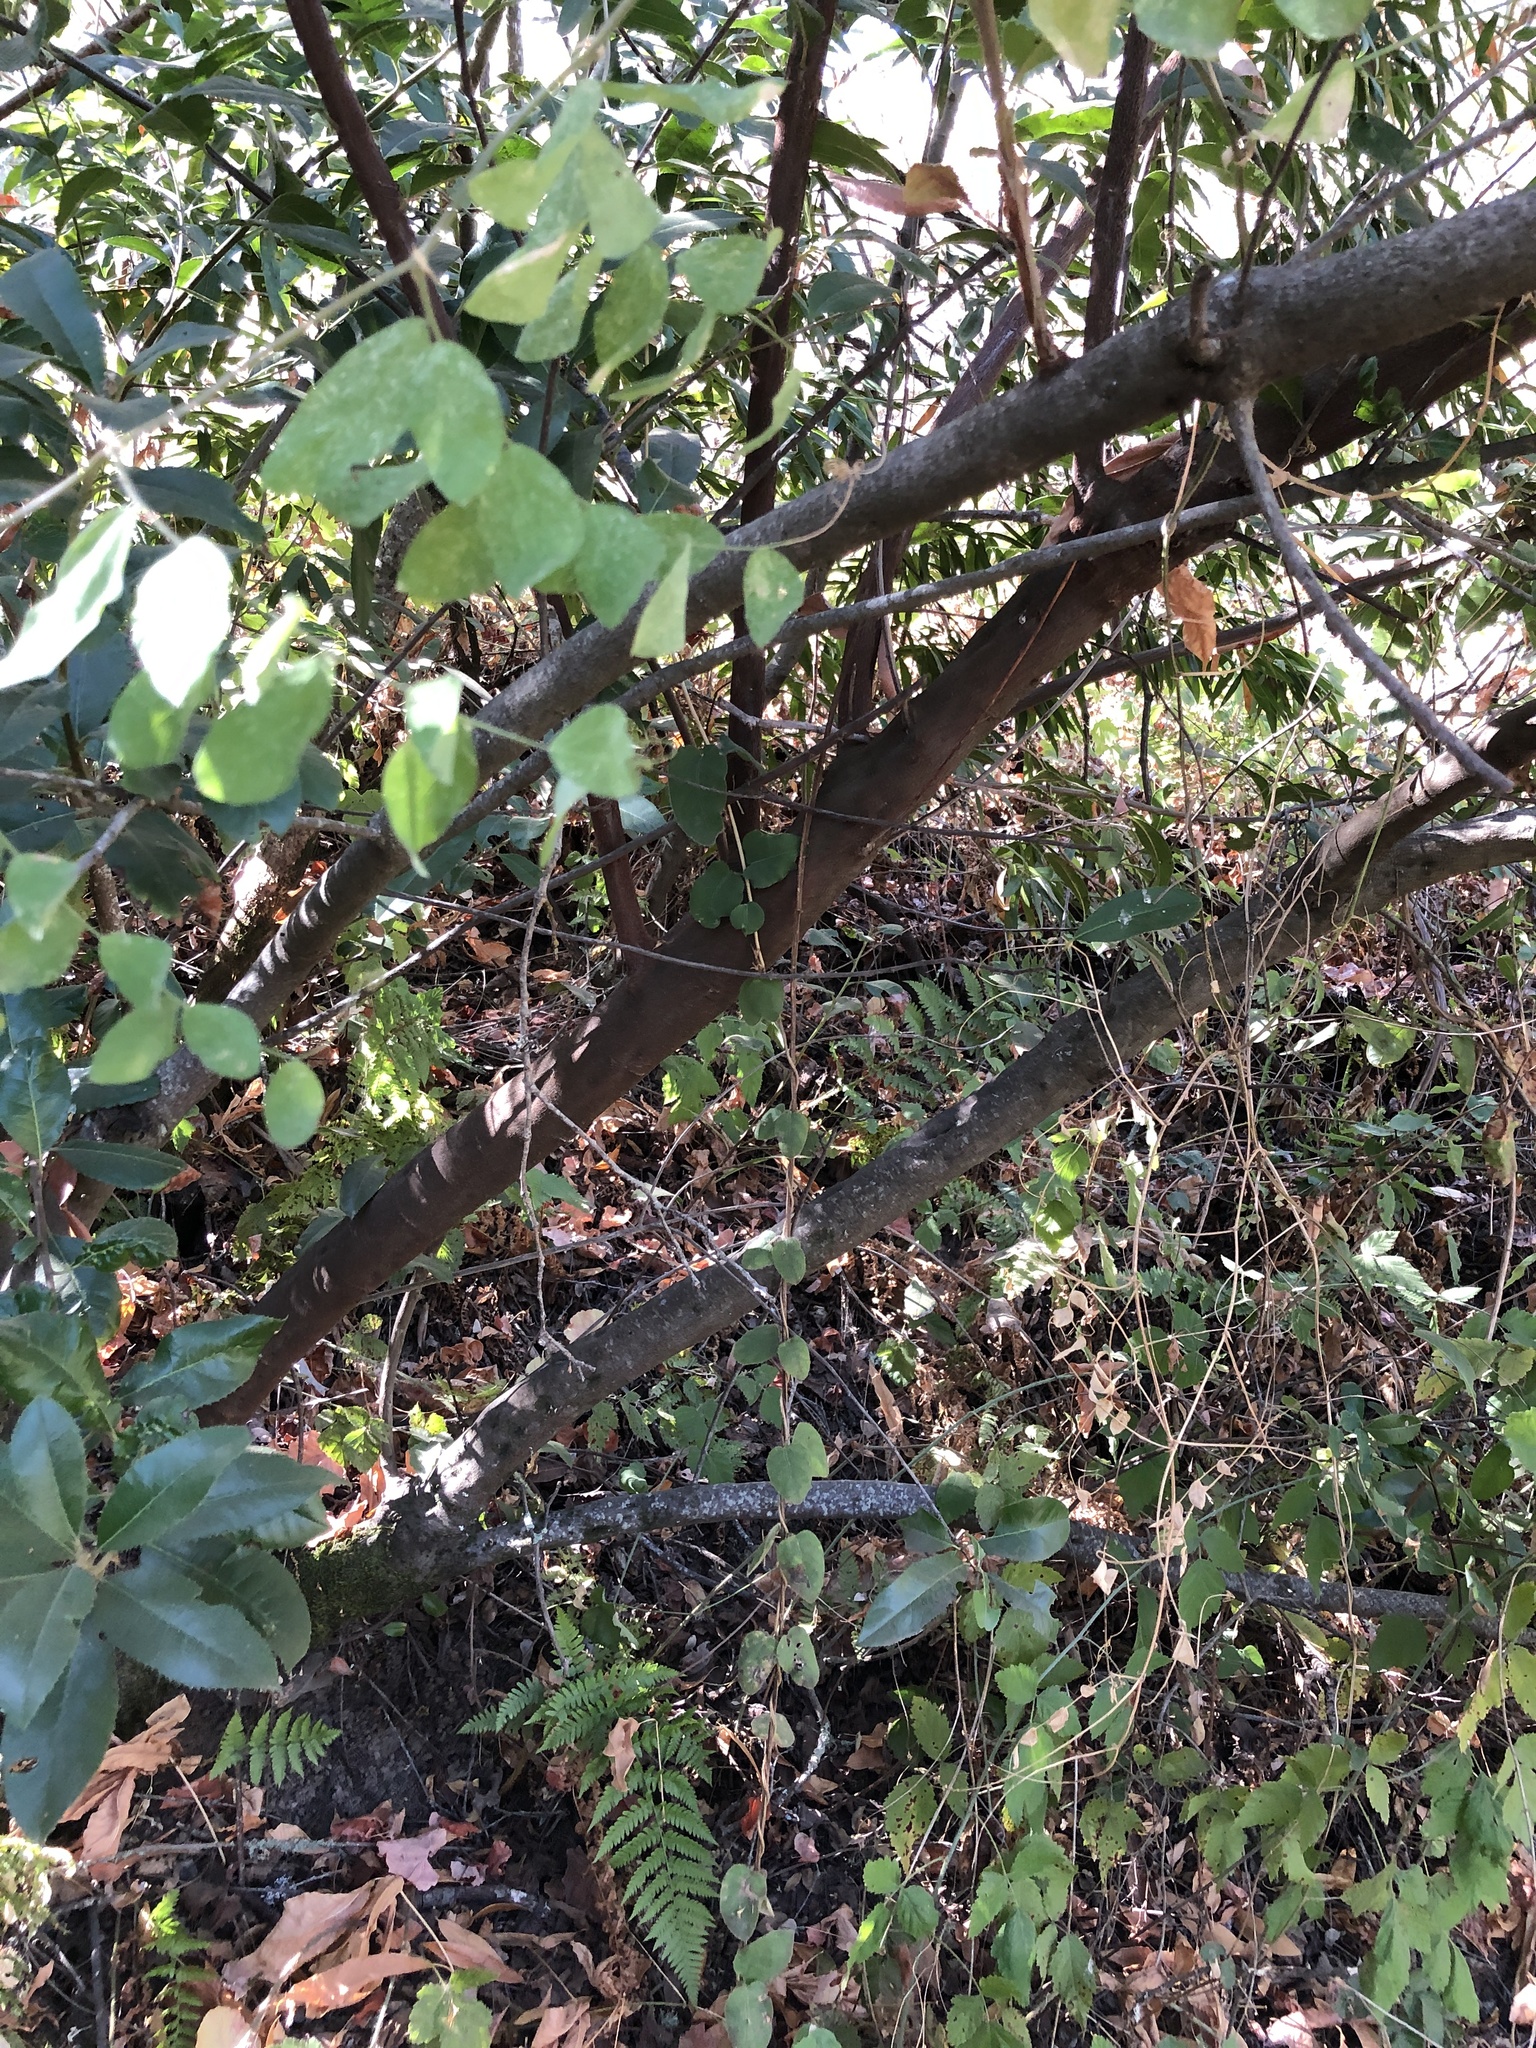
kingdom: Plantae
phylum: Tracheophyta
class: Magnoliopsida
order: Rosales
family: Rosaceae
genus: Heteromeles
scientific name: Heteromeles arbutifolia
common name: California-holly
